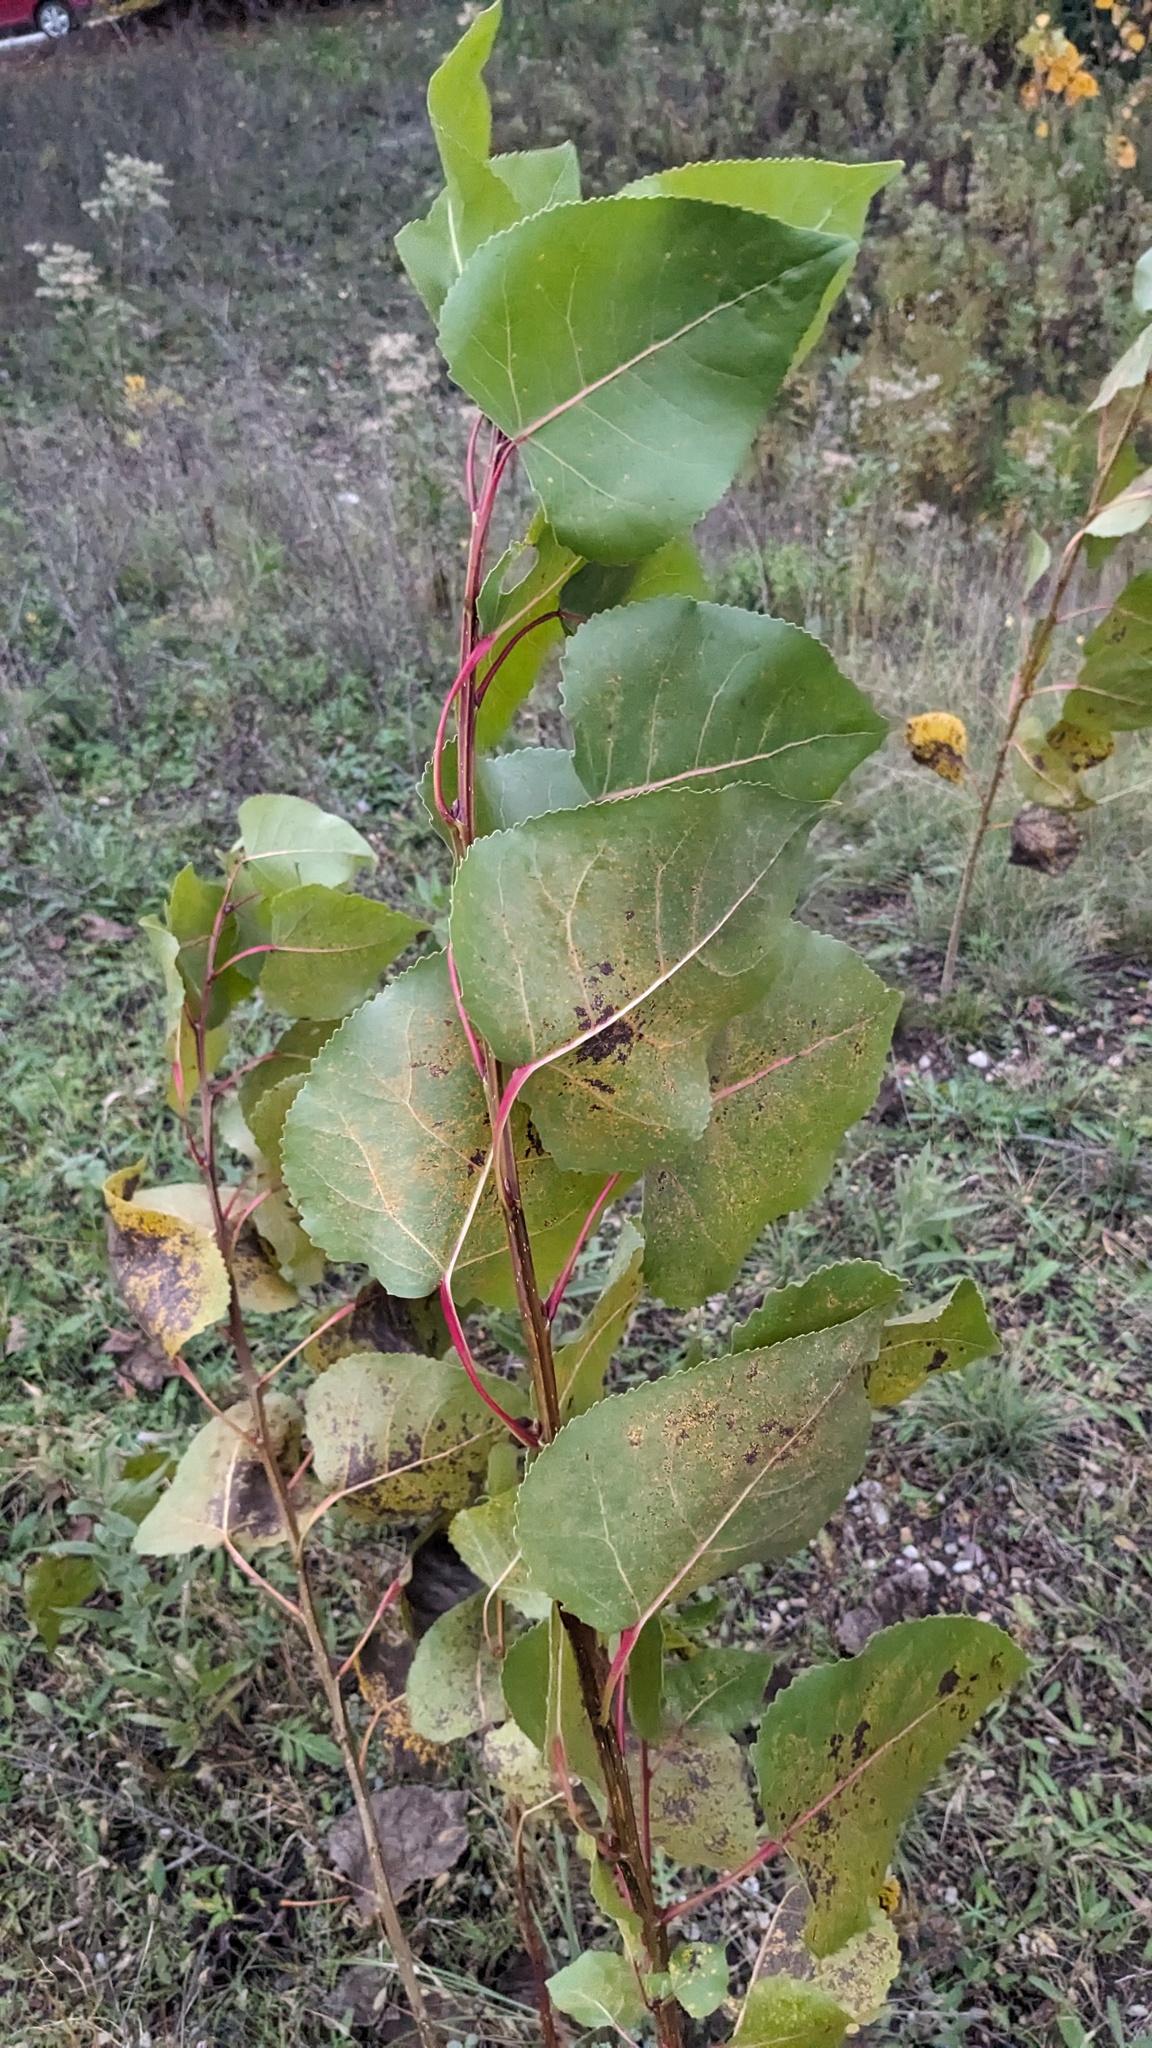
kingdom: Plantae
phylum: Tracheophyta
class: Magnoliopsida
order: Malpighiales
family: Salicaceae
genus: Populus
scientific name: Populus deltoides
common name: Eastern cottonwood
